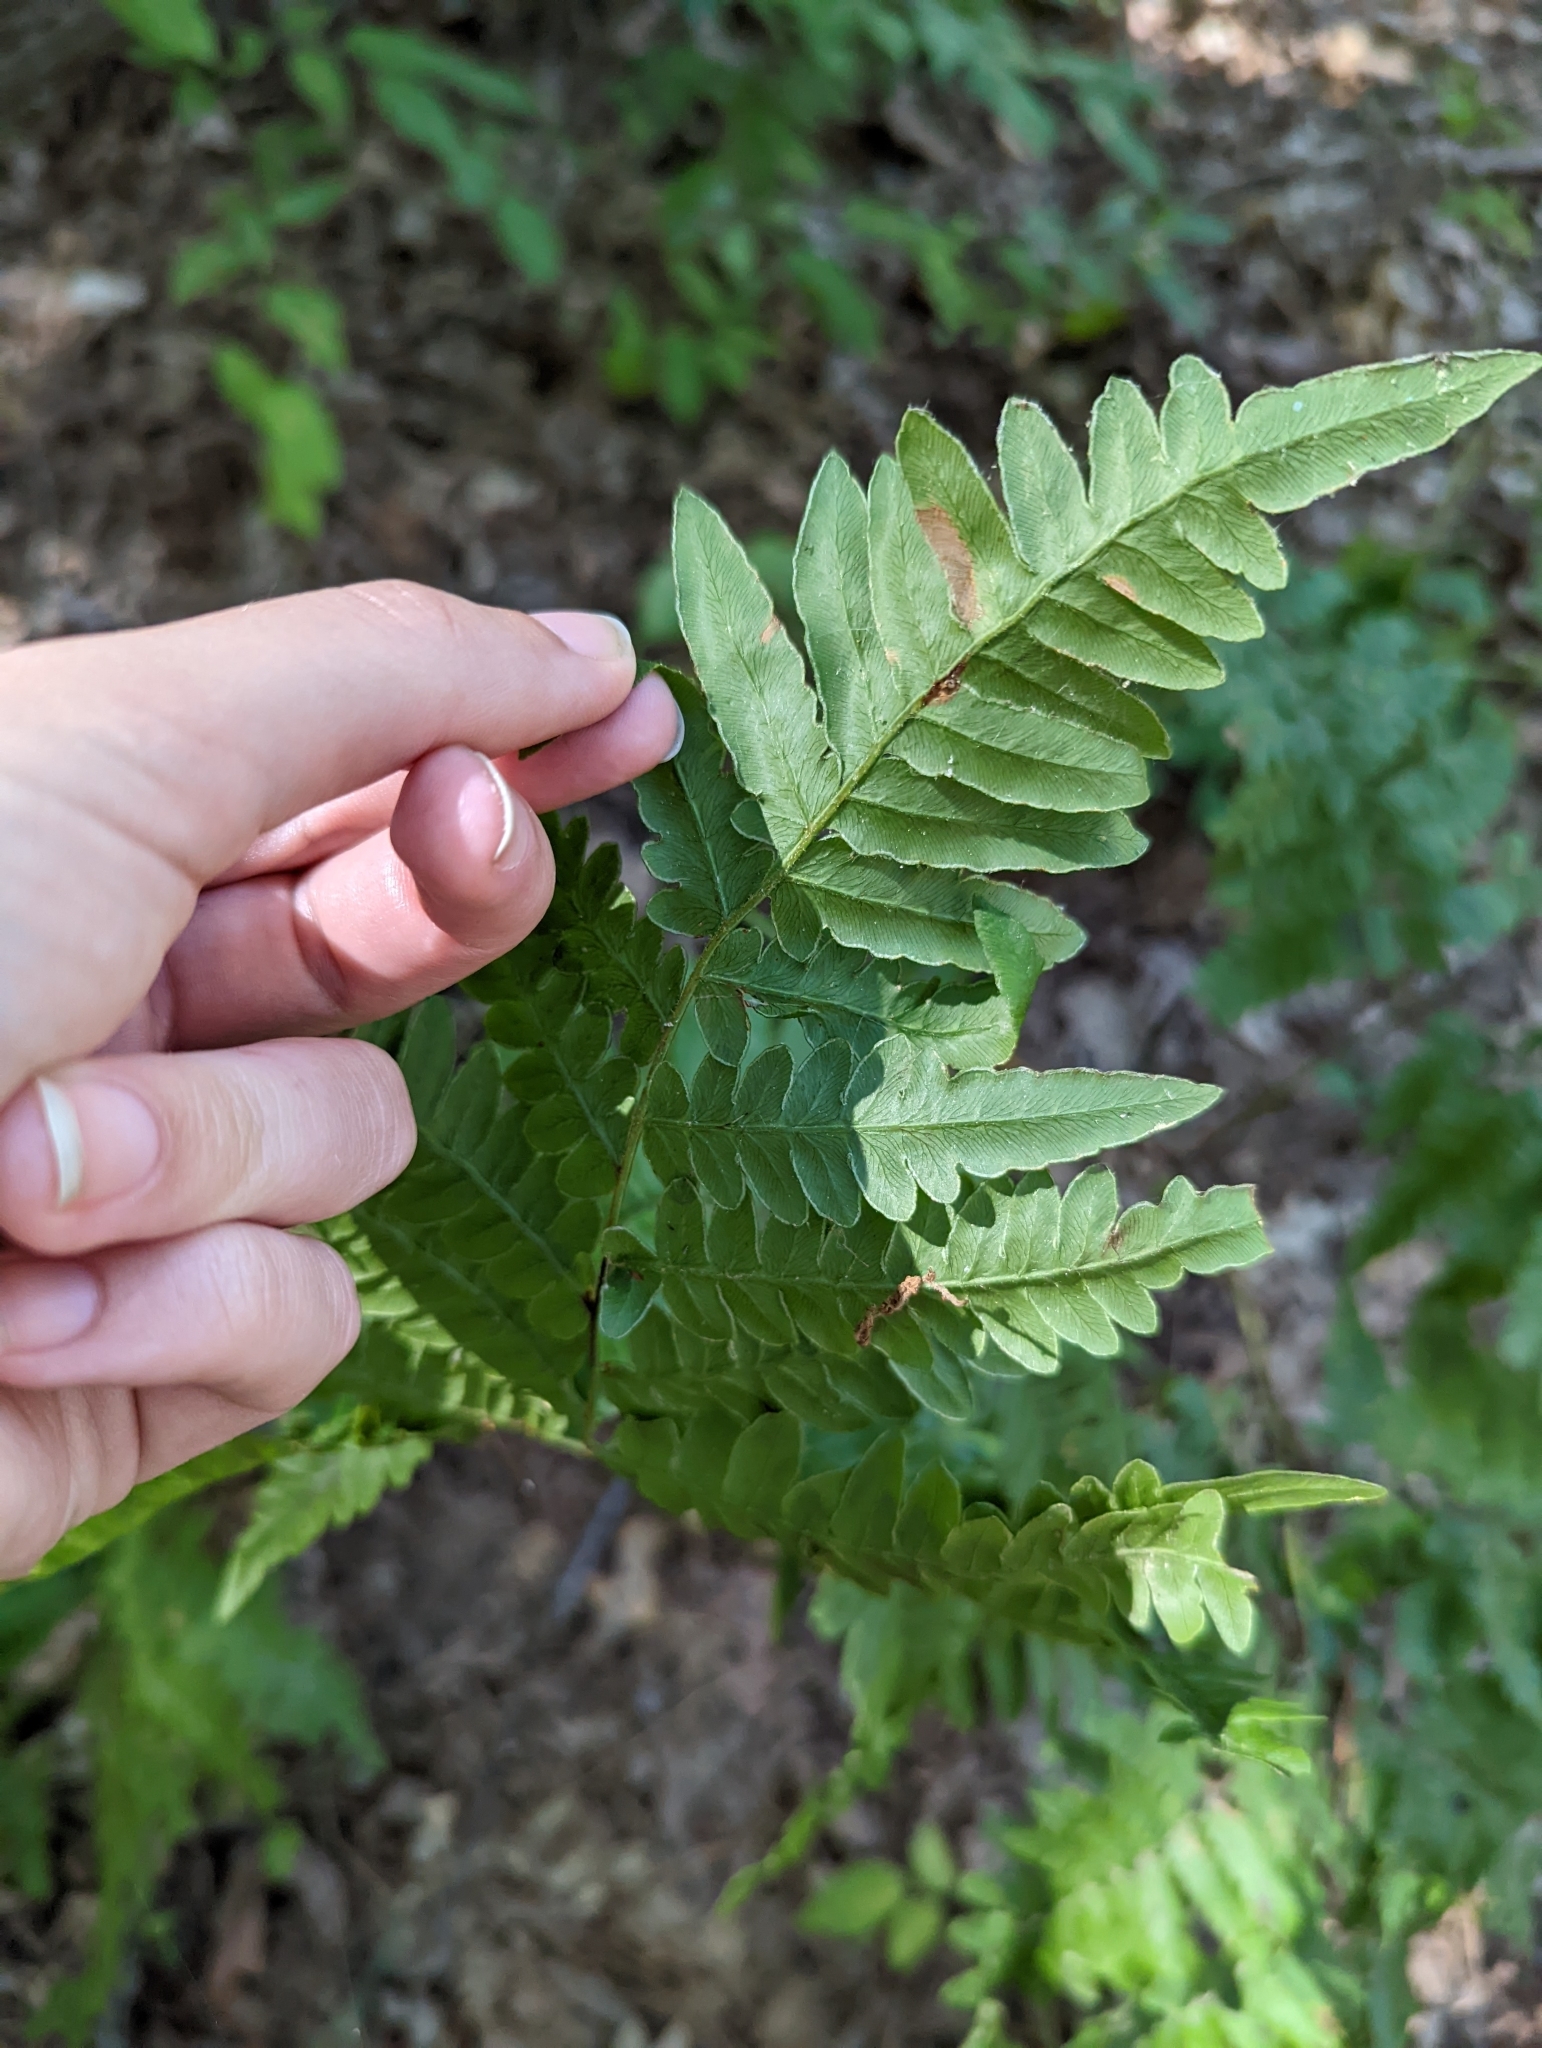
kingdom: Plantae
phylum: Tracheophyta
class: Polypodiopsida
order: Polypodiales
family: Dennstaedtiaceae
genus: Pteridium
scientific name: Pteridium aquilinum
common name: Bracken
